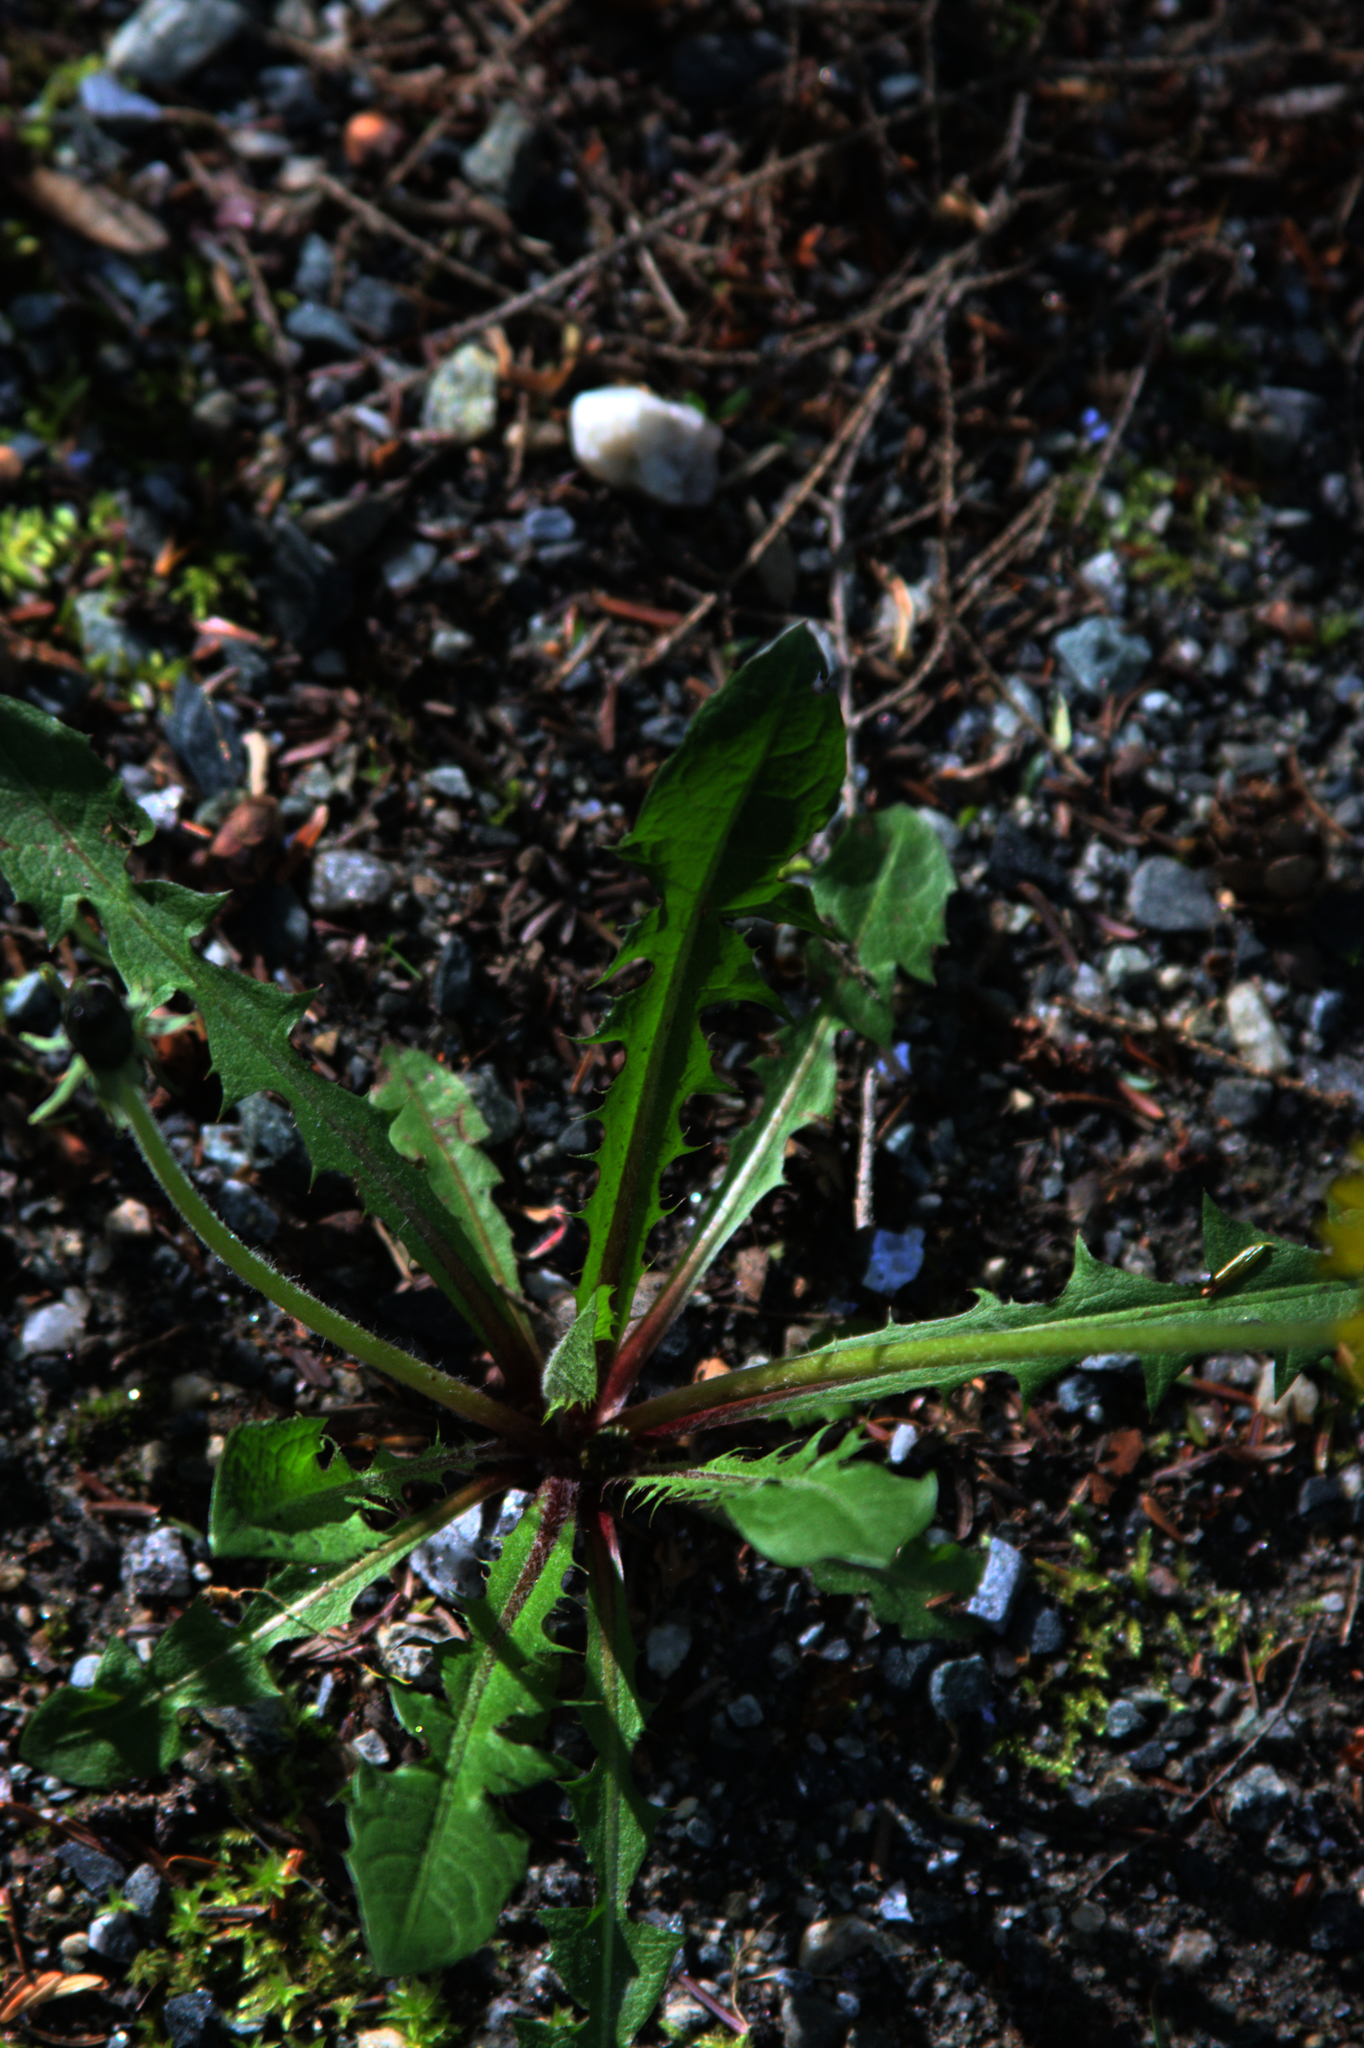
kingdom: Plantae
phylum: Tracheophyta
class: Magnoliopsida
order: Asterales
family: Asteraceae
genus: Taraxacum
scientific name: Taraxacum officinale
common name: Common dandelion
